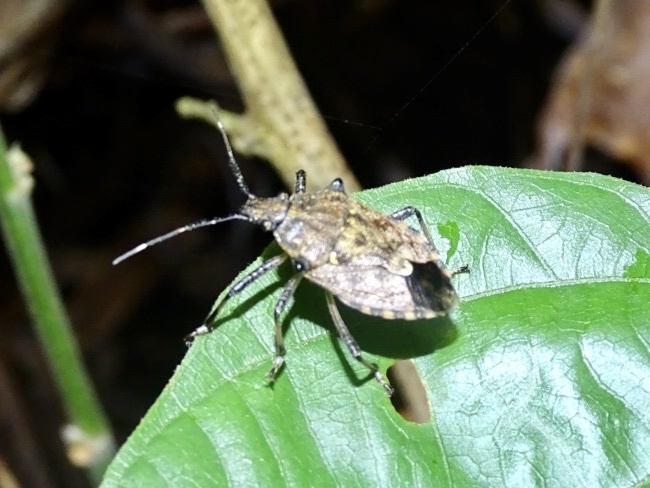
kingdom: Animalia
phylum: Arthropoda
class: Insecta
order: Hemiptera
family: Pentatomidae
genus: Dalpada
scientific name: Dalpada nodifera
